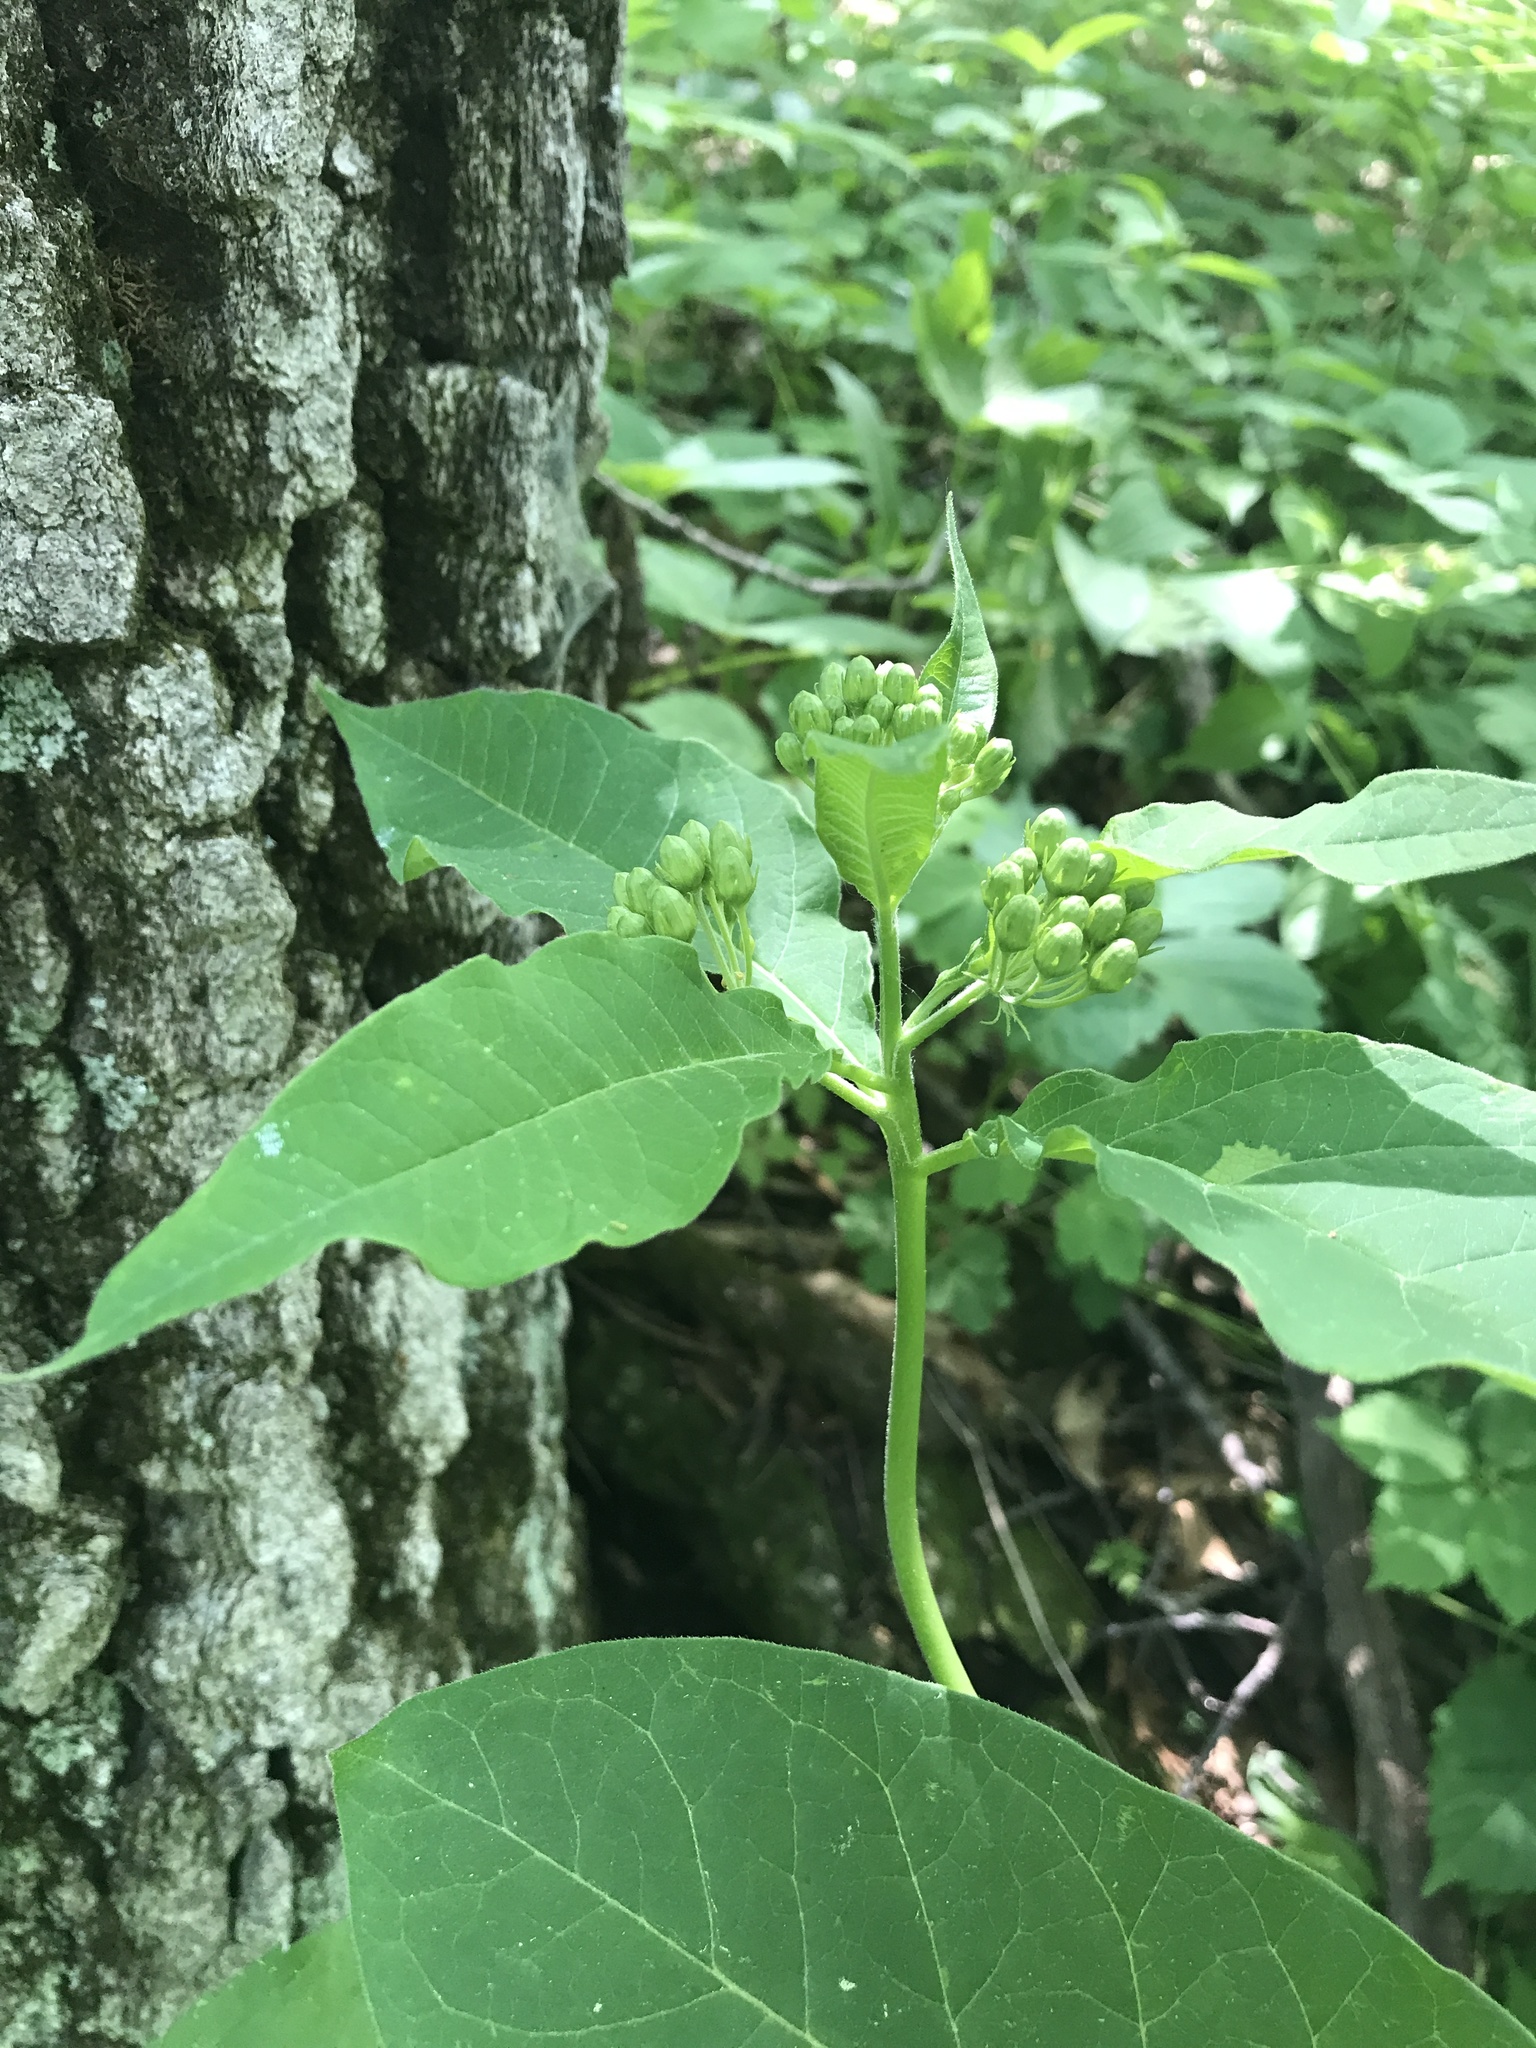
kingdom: Plantae
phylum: Tracheophyta
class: Magnoliopsida
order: Gentianales
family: Apocynaceae
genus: Asclepias
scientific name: Asclepias exaltata
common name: Poke milkweed
